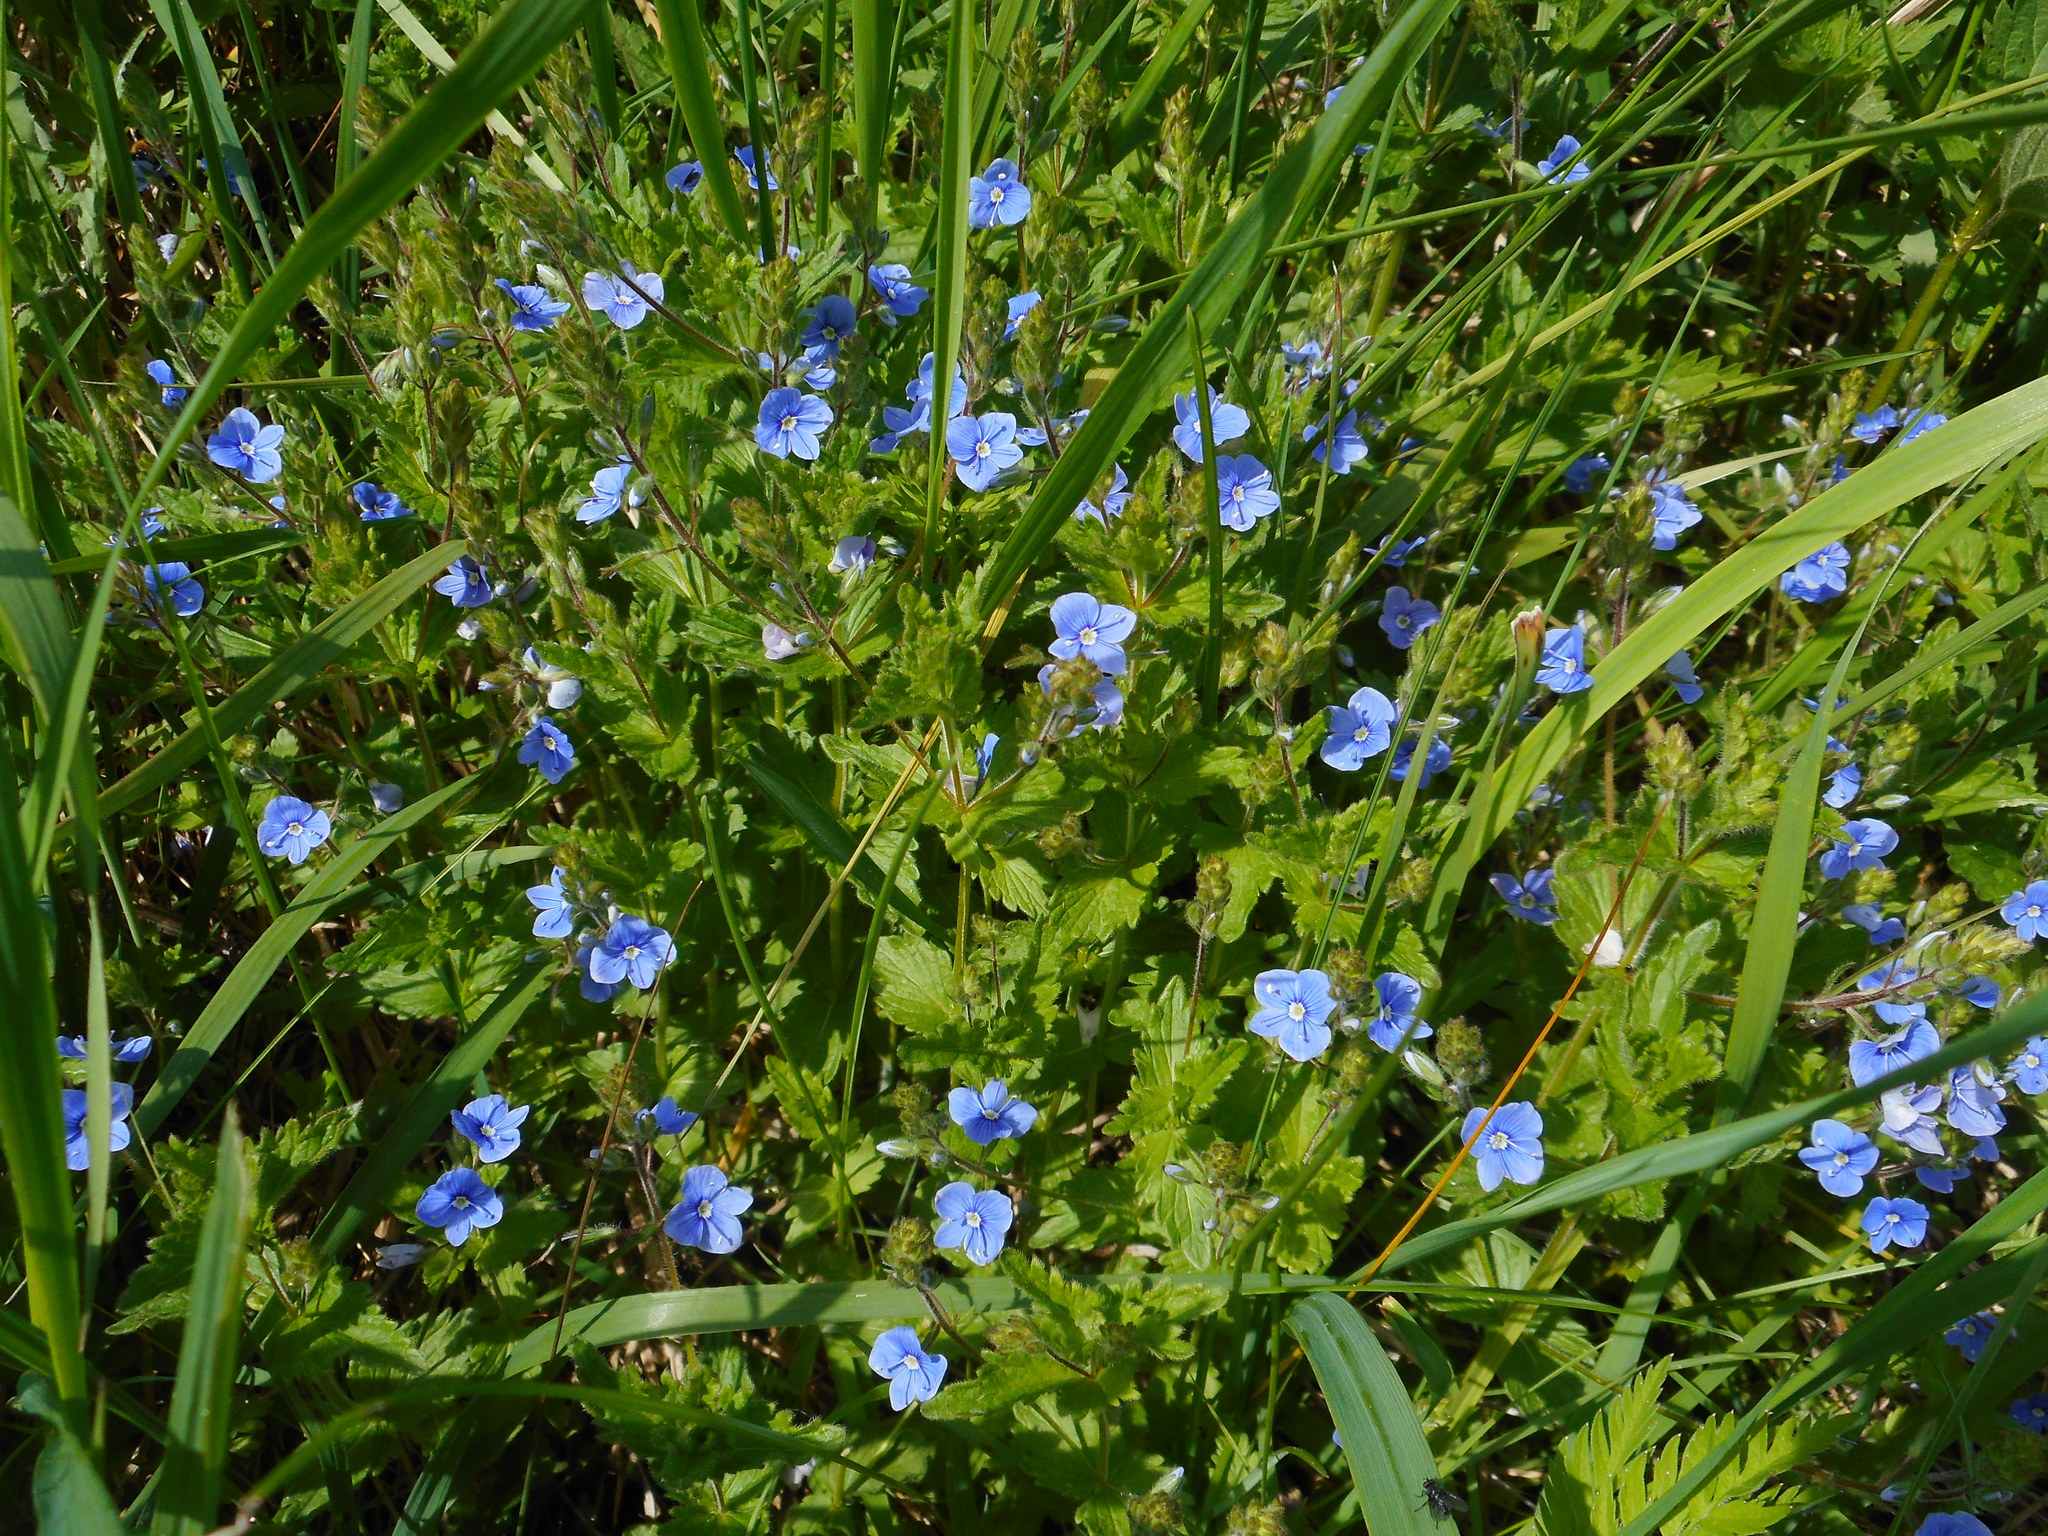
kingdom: Plantae
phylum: Tracheophyta
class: Magnoliopsida
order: Lamiales
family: Plantaginaceae
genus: Veronica
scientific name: Veronica chamaedrys
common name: Germander speedwell
